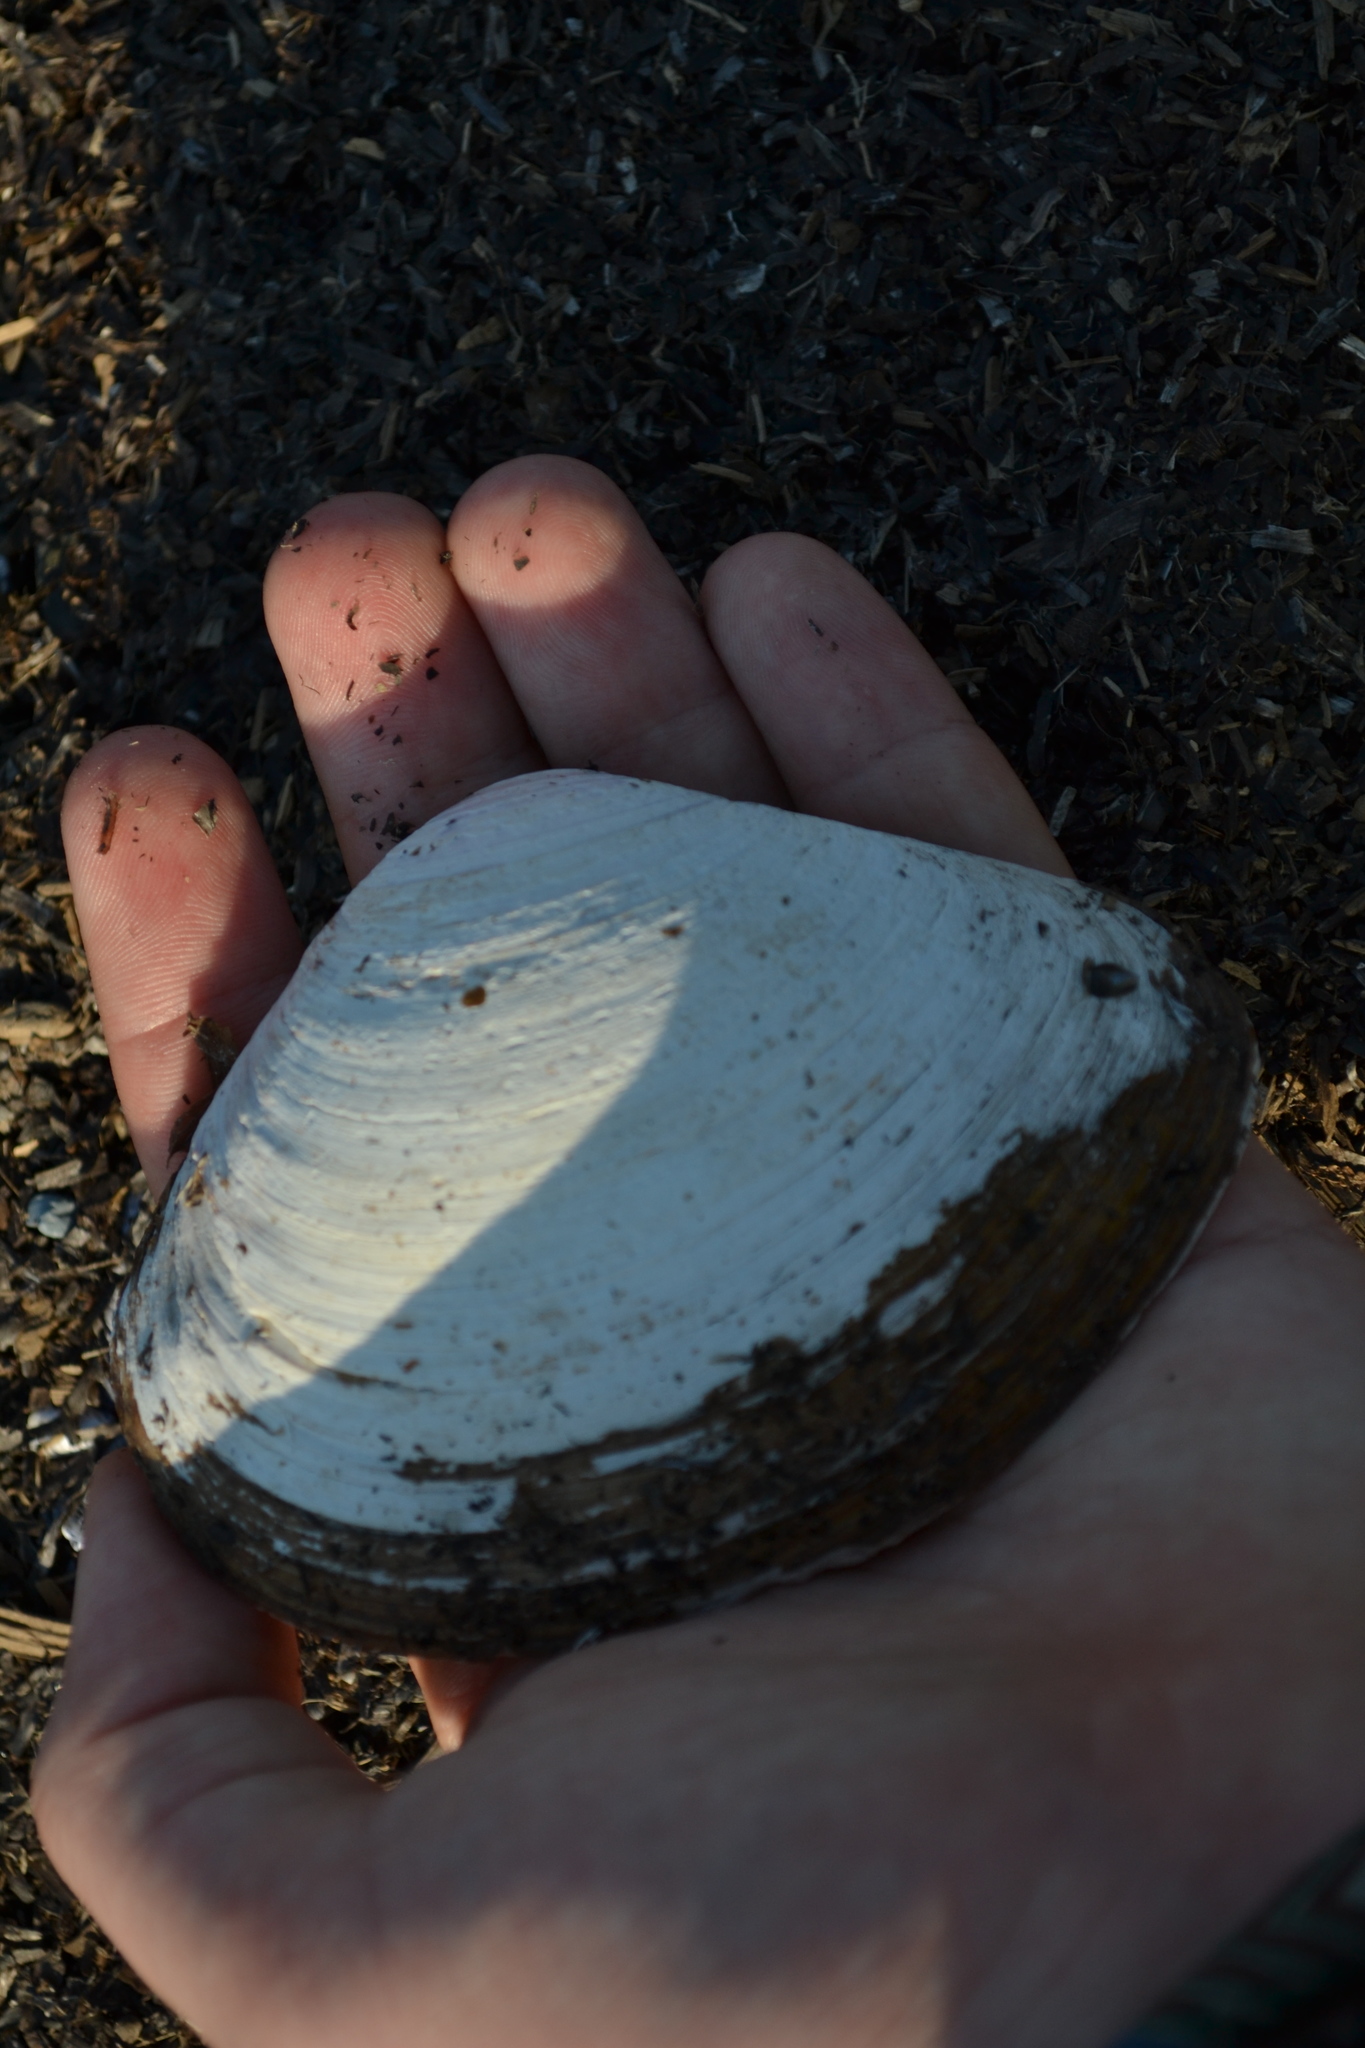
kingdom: Animalia
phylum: Mollusca
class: Bivalvia
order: Venerida
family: Mactridae
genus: Mactromeris
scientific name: Mactromeris polynyma
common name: Arctic surf clam
